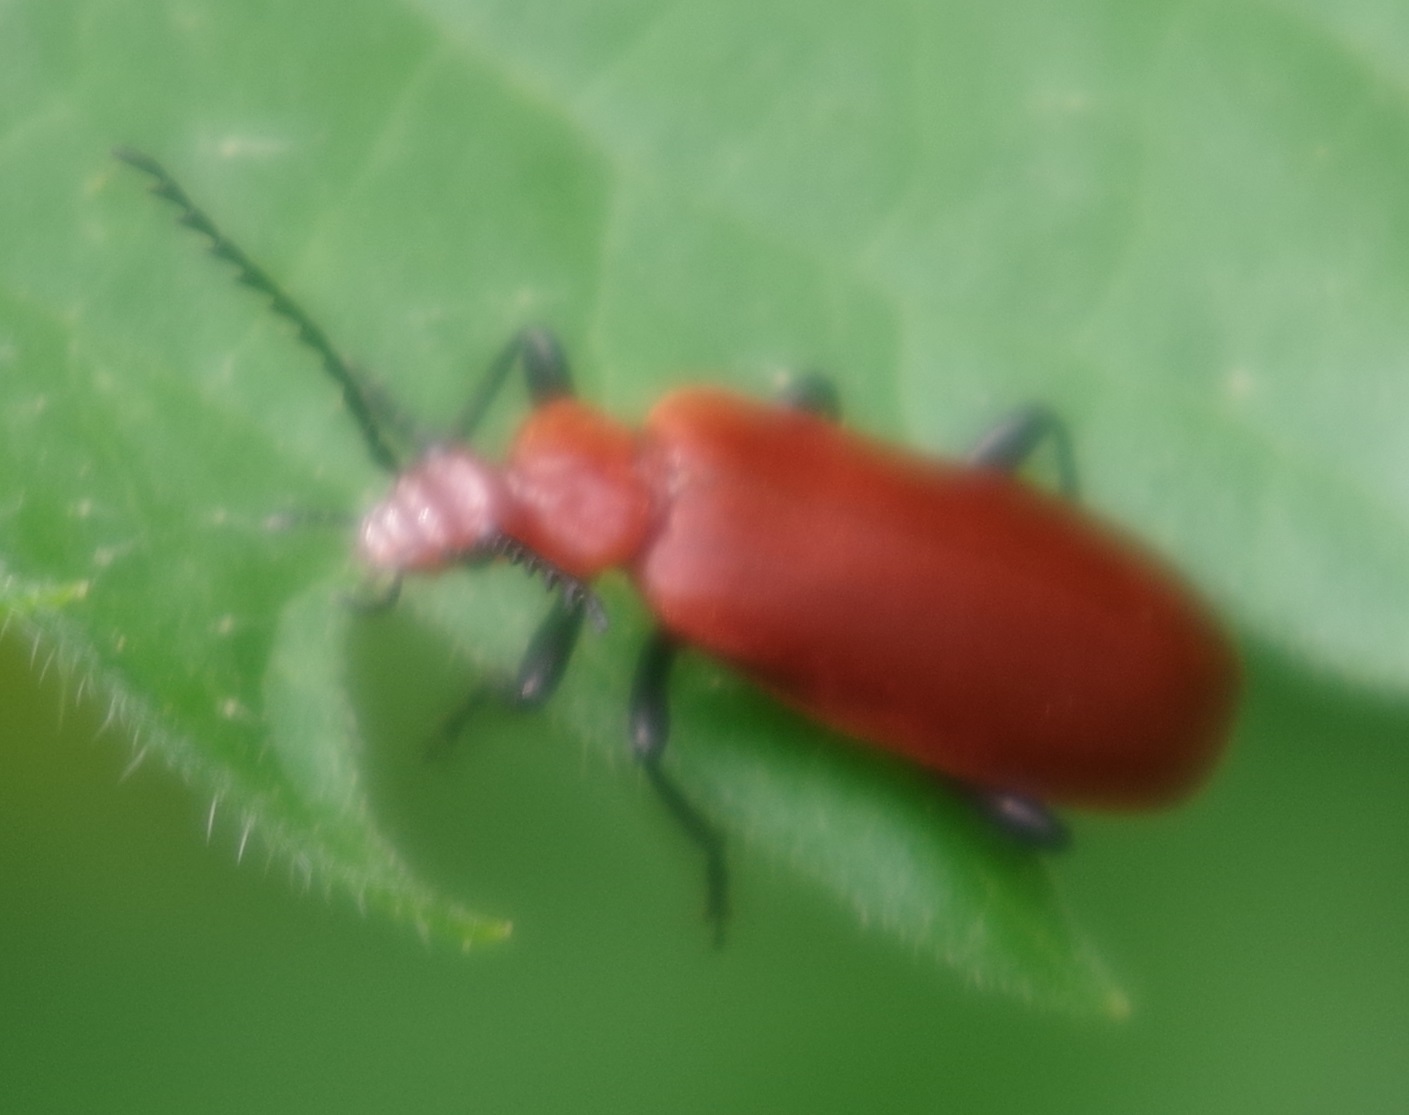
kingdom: Animalia
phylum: Arthropoda
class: Insecta
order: Coleoptera
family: Pyrochroidae
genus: Pyrochroa
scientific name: Pyrochroa serraticornis
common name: Red-headed cardinal beetle
